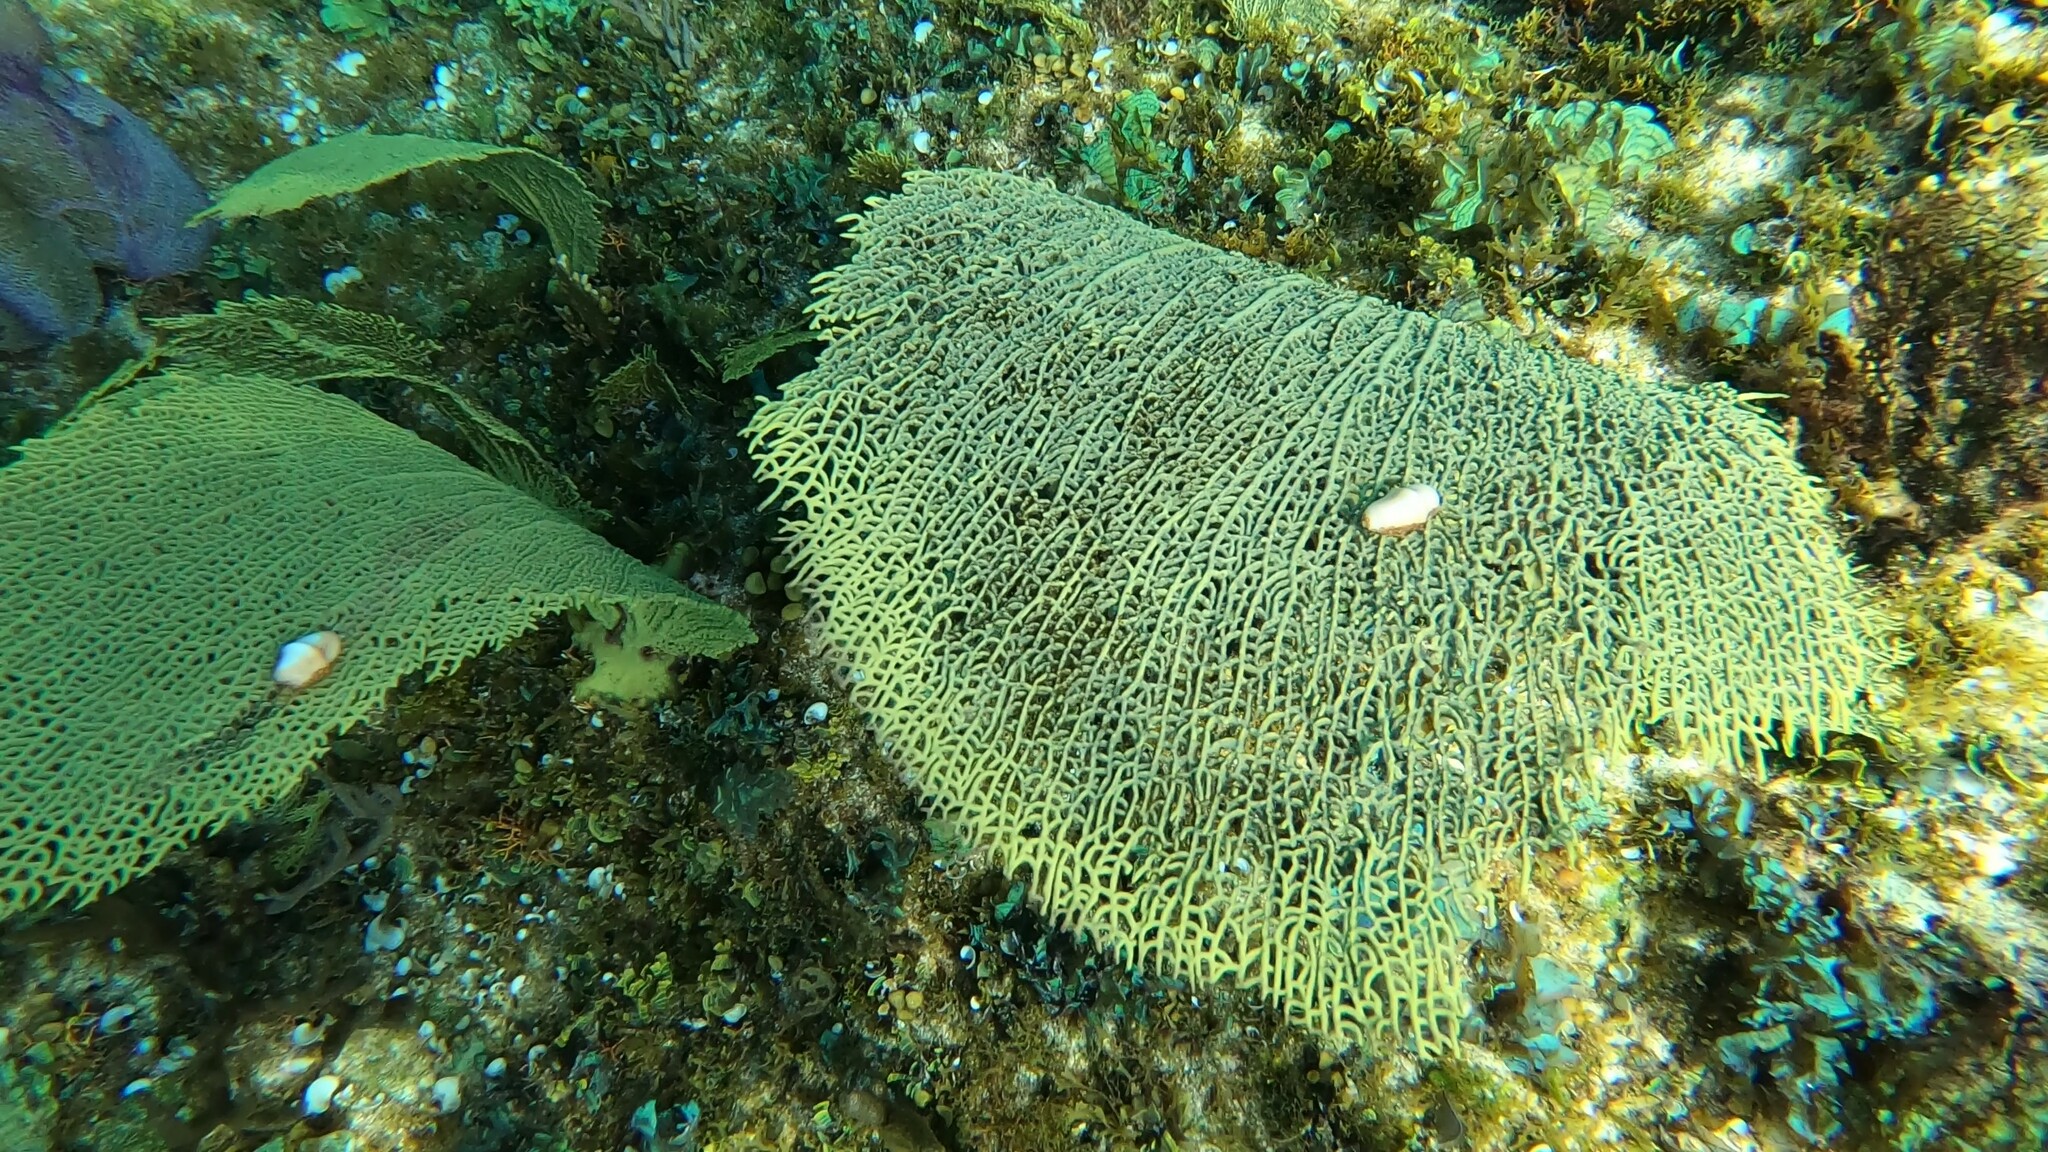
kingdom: Animalia
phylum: Mollusca
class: Gastropoda
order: Littorinimorpha
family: Ovulidae
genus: Cyphoma
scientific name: Cyphoma gibbosum
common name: Flamingo tongue
